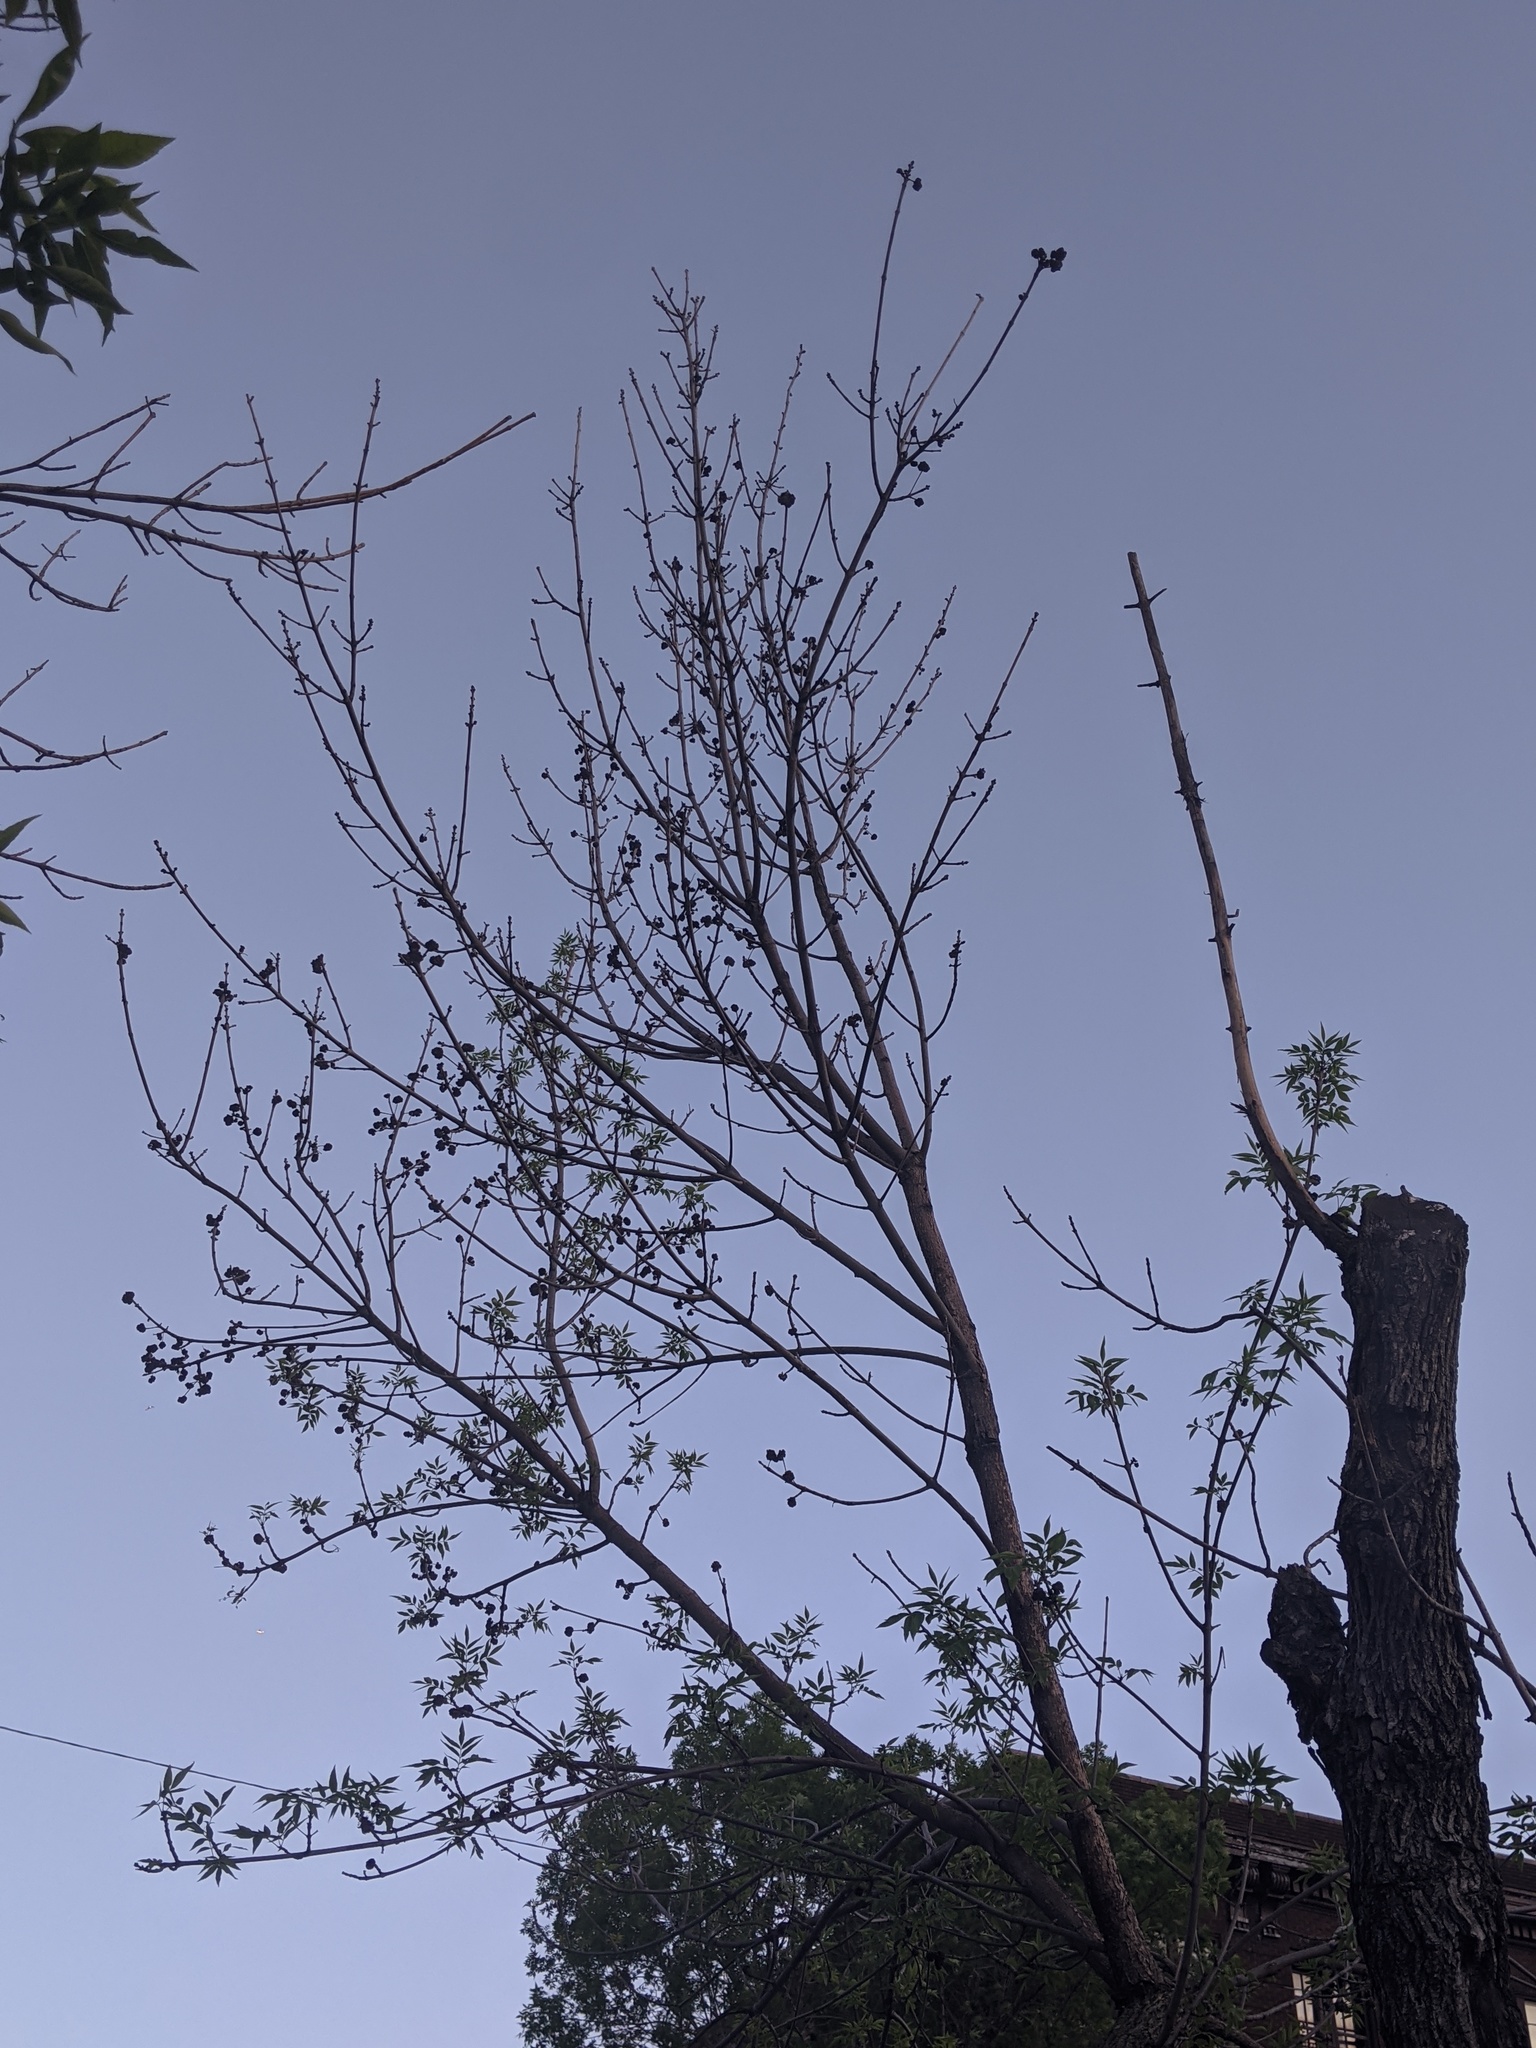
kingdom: Animalia
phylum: Arthropoda
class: Arachnida
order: Trombidiformes
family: Eriophyidae
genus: Aceria
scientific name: Aceria fraxiniflora
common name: Ash flower gall mite
